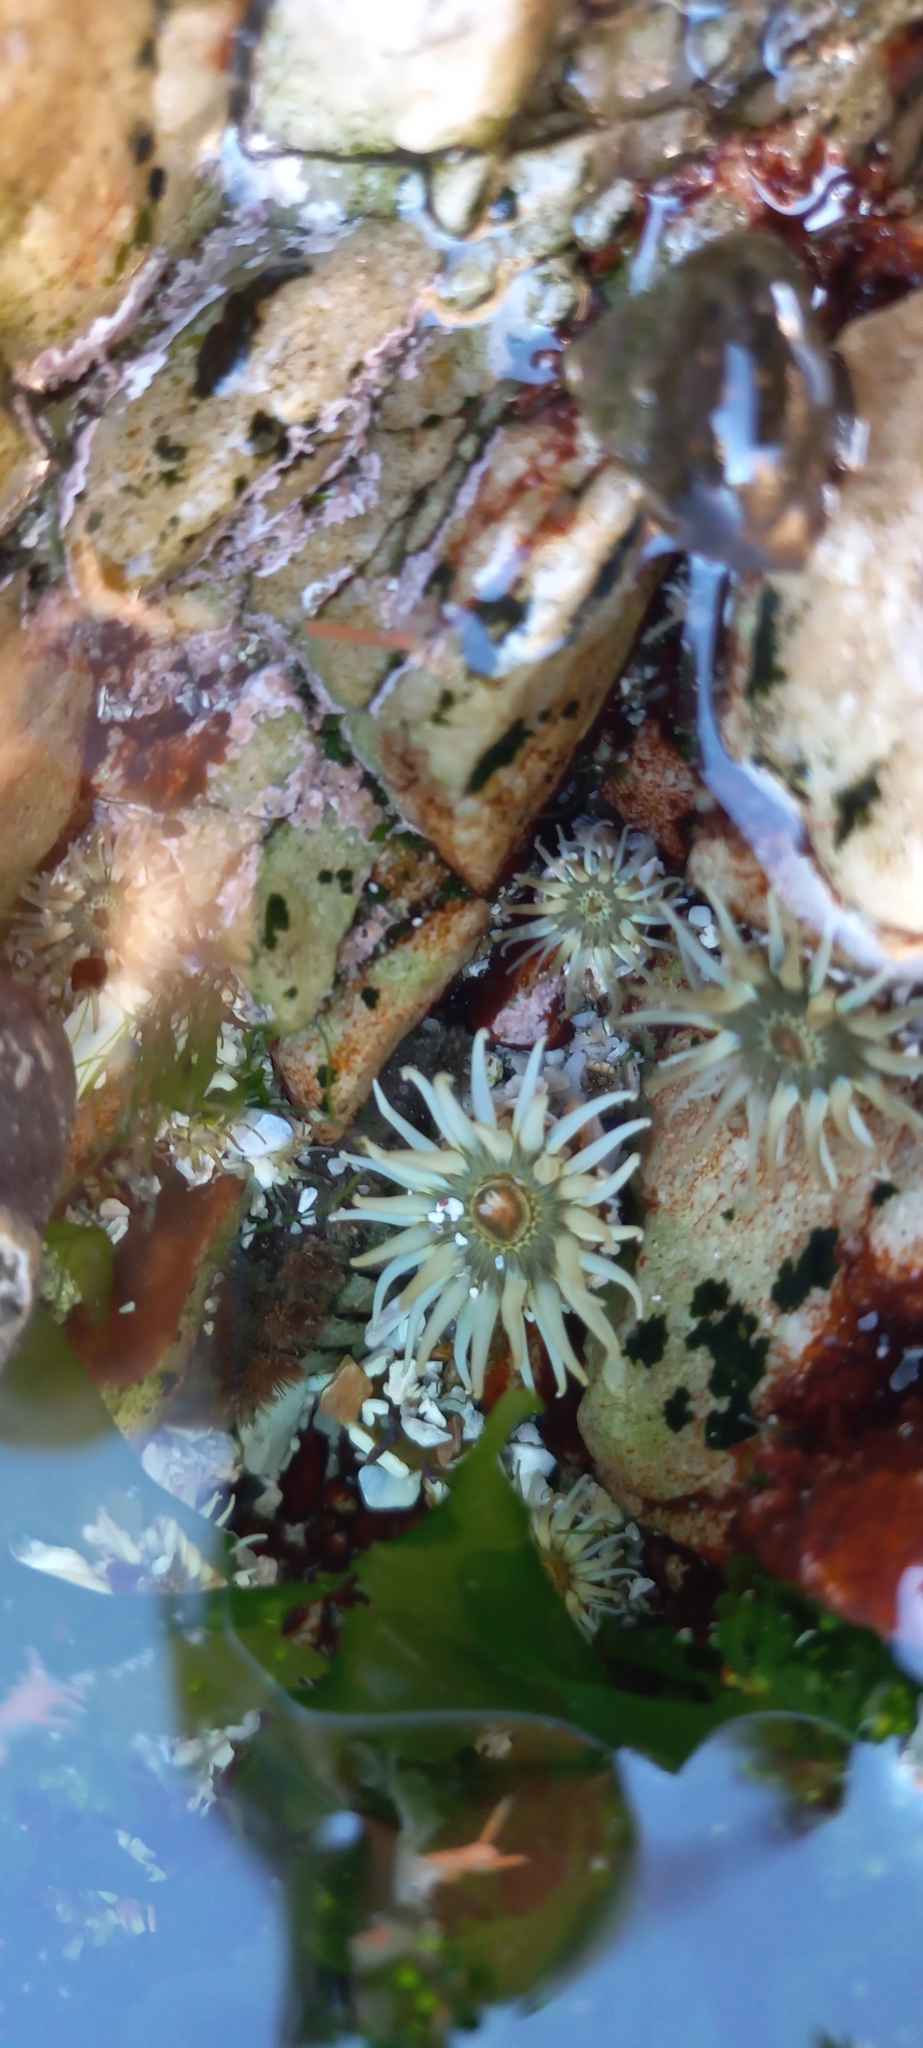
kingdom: Animalia
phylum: Cnidaria
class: Anthozoa
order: Actiniaria
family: Actiniidae
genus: Anthopleura
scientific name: Anthopleura michaelseni
